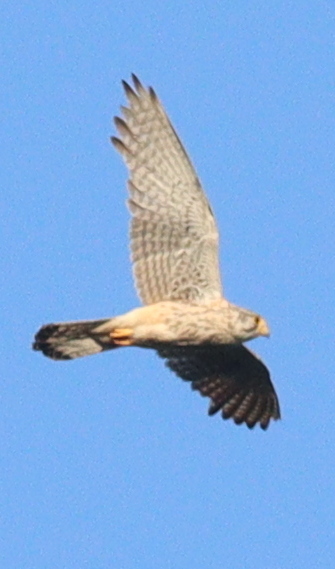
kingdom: Animalia
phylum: Chordata
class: Aves
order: Falconiformes
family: Falconidae
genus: Falco
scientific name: Falco tinnunculus
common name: Common kestrel
